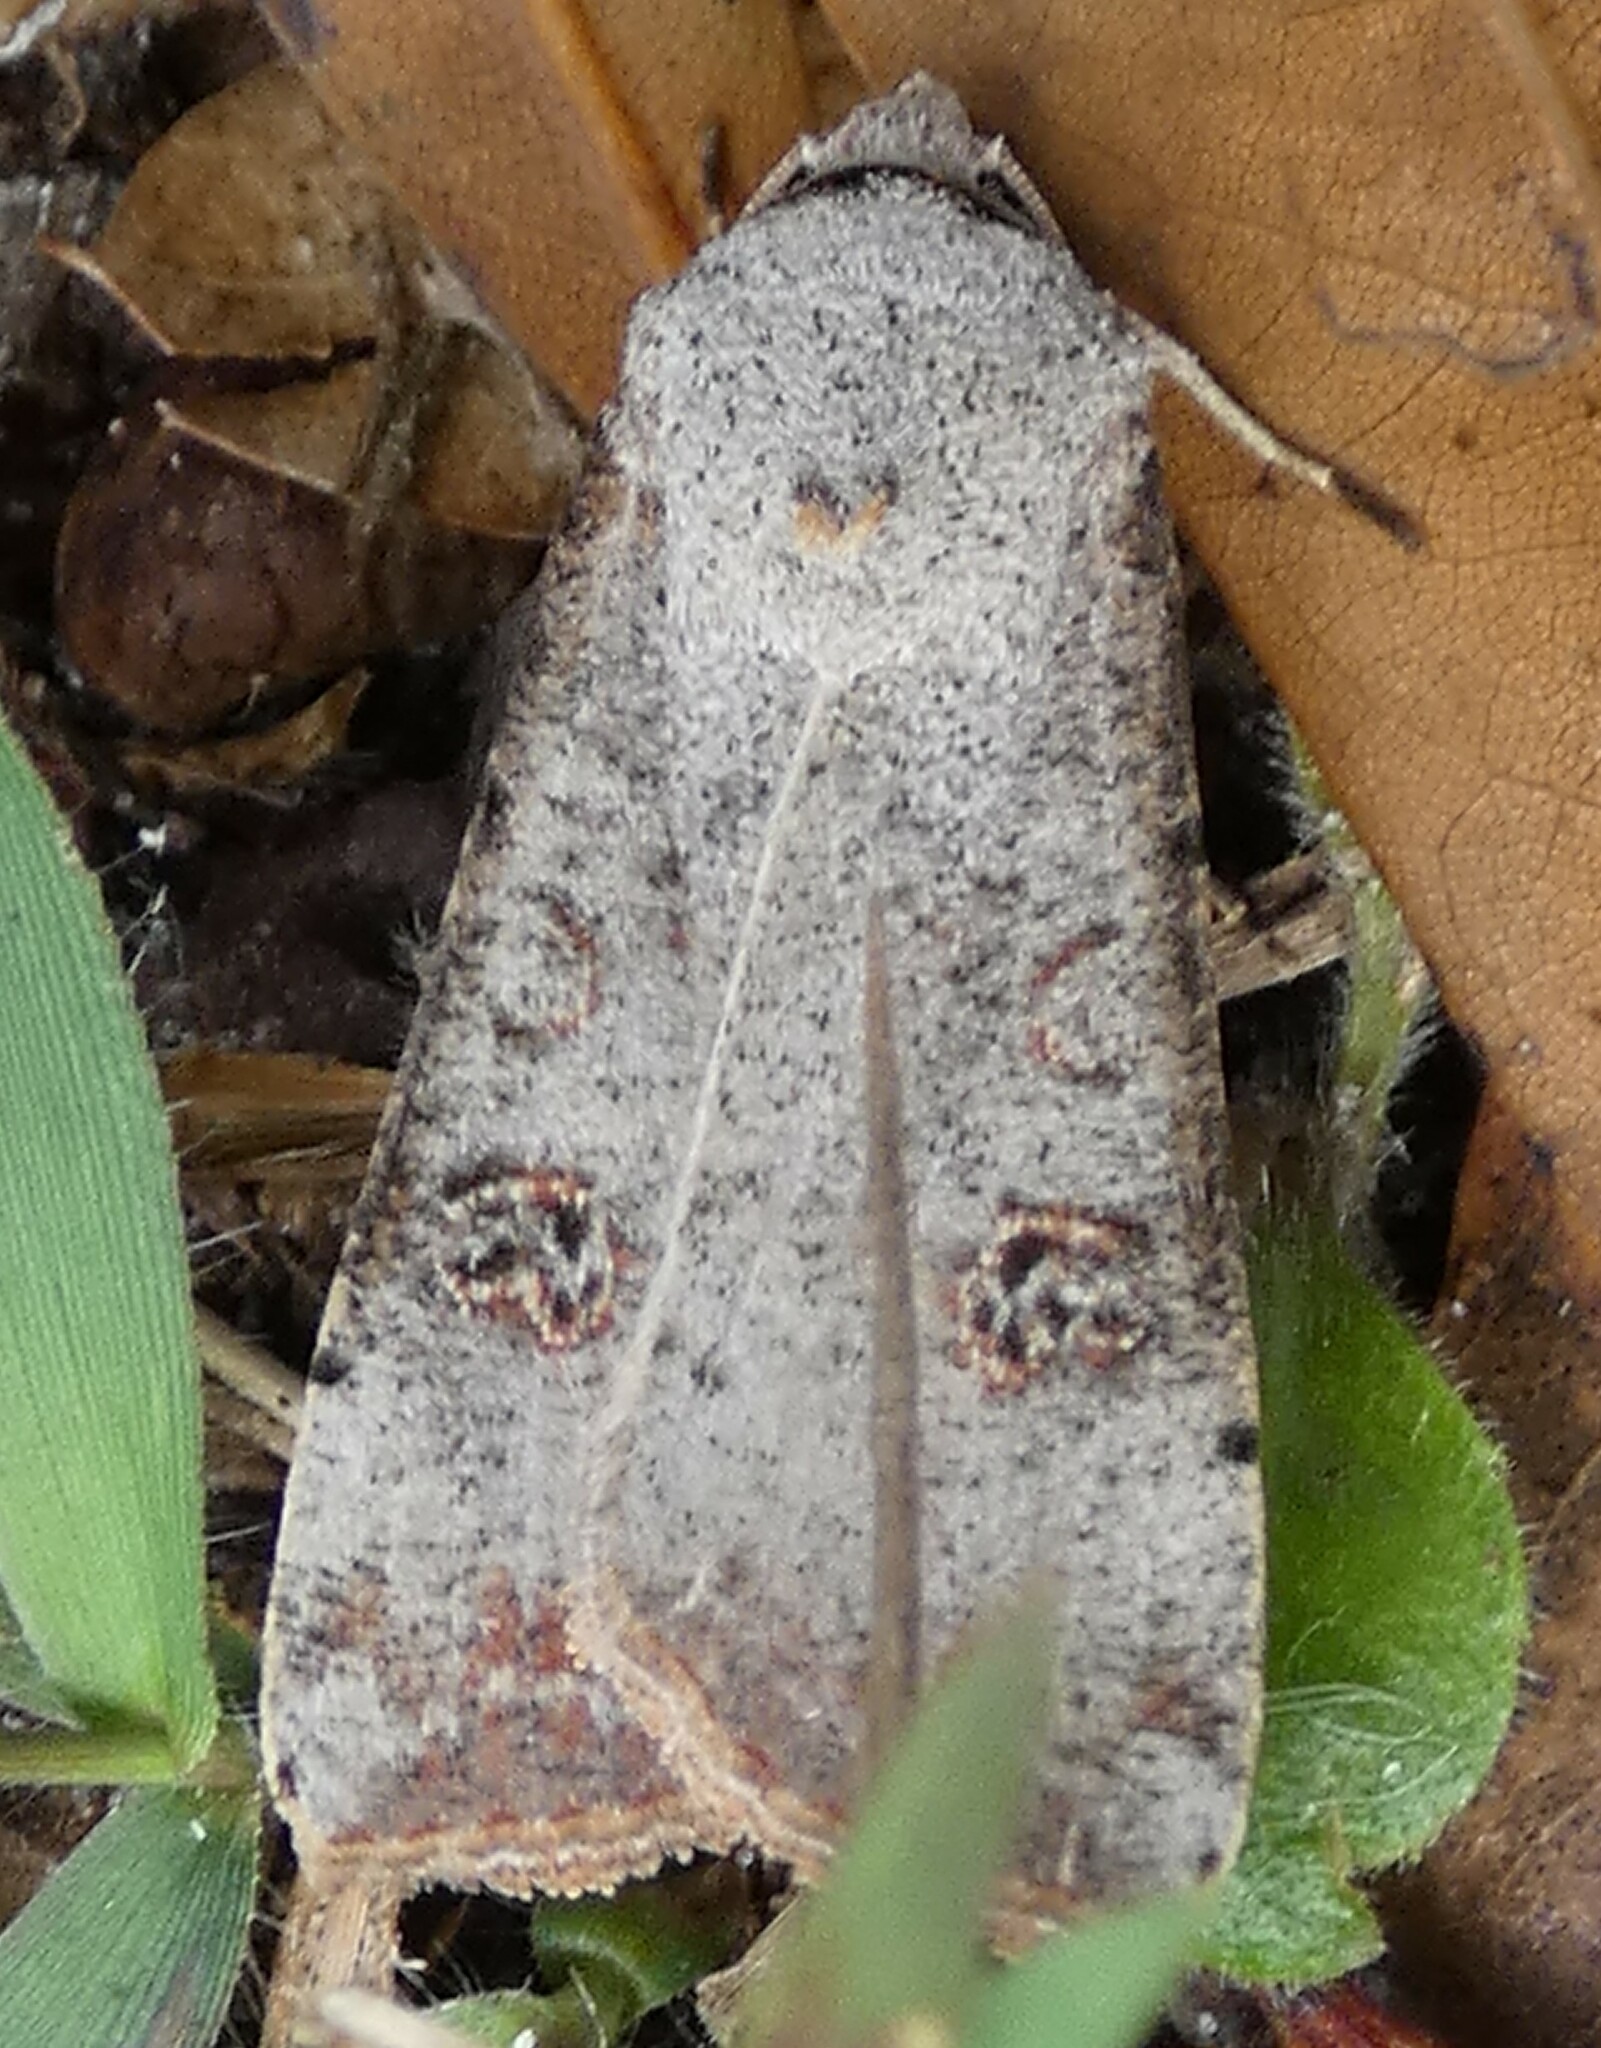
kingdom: Animalia
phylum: Arthropoda
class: Insecta
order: Lepidoptera
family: Noctuidae
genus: Anicla
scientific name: Anicla infecta
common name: Green cutworm
